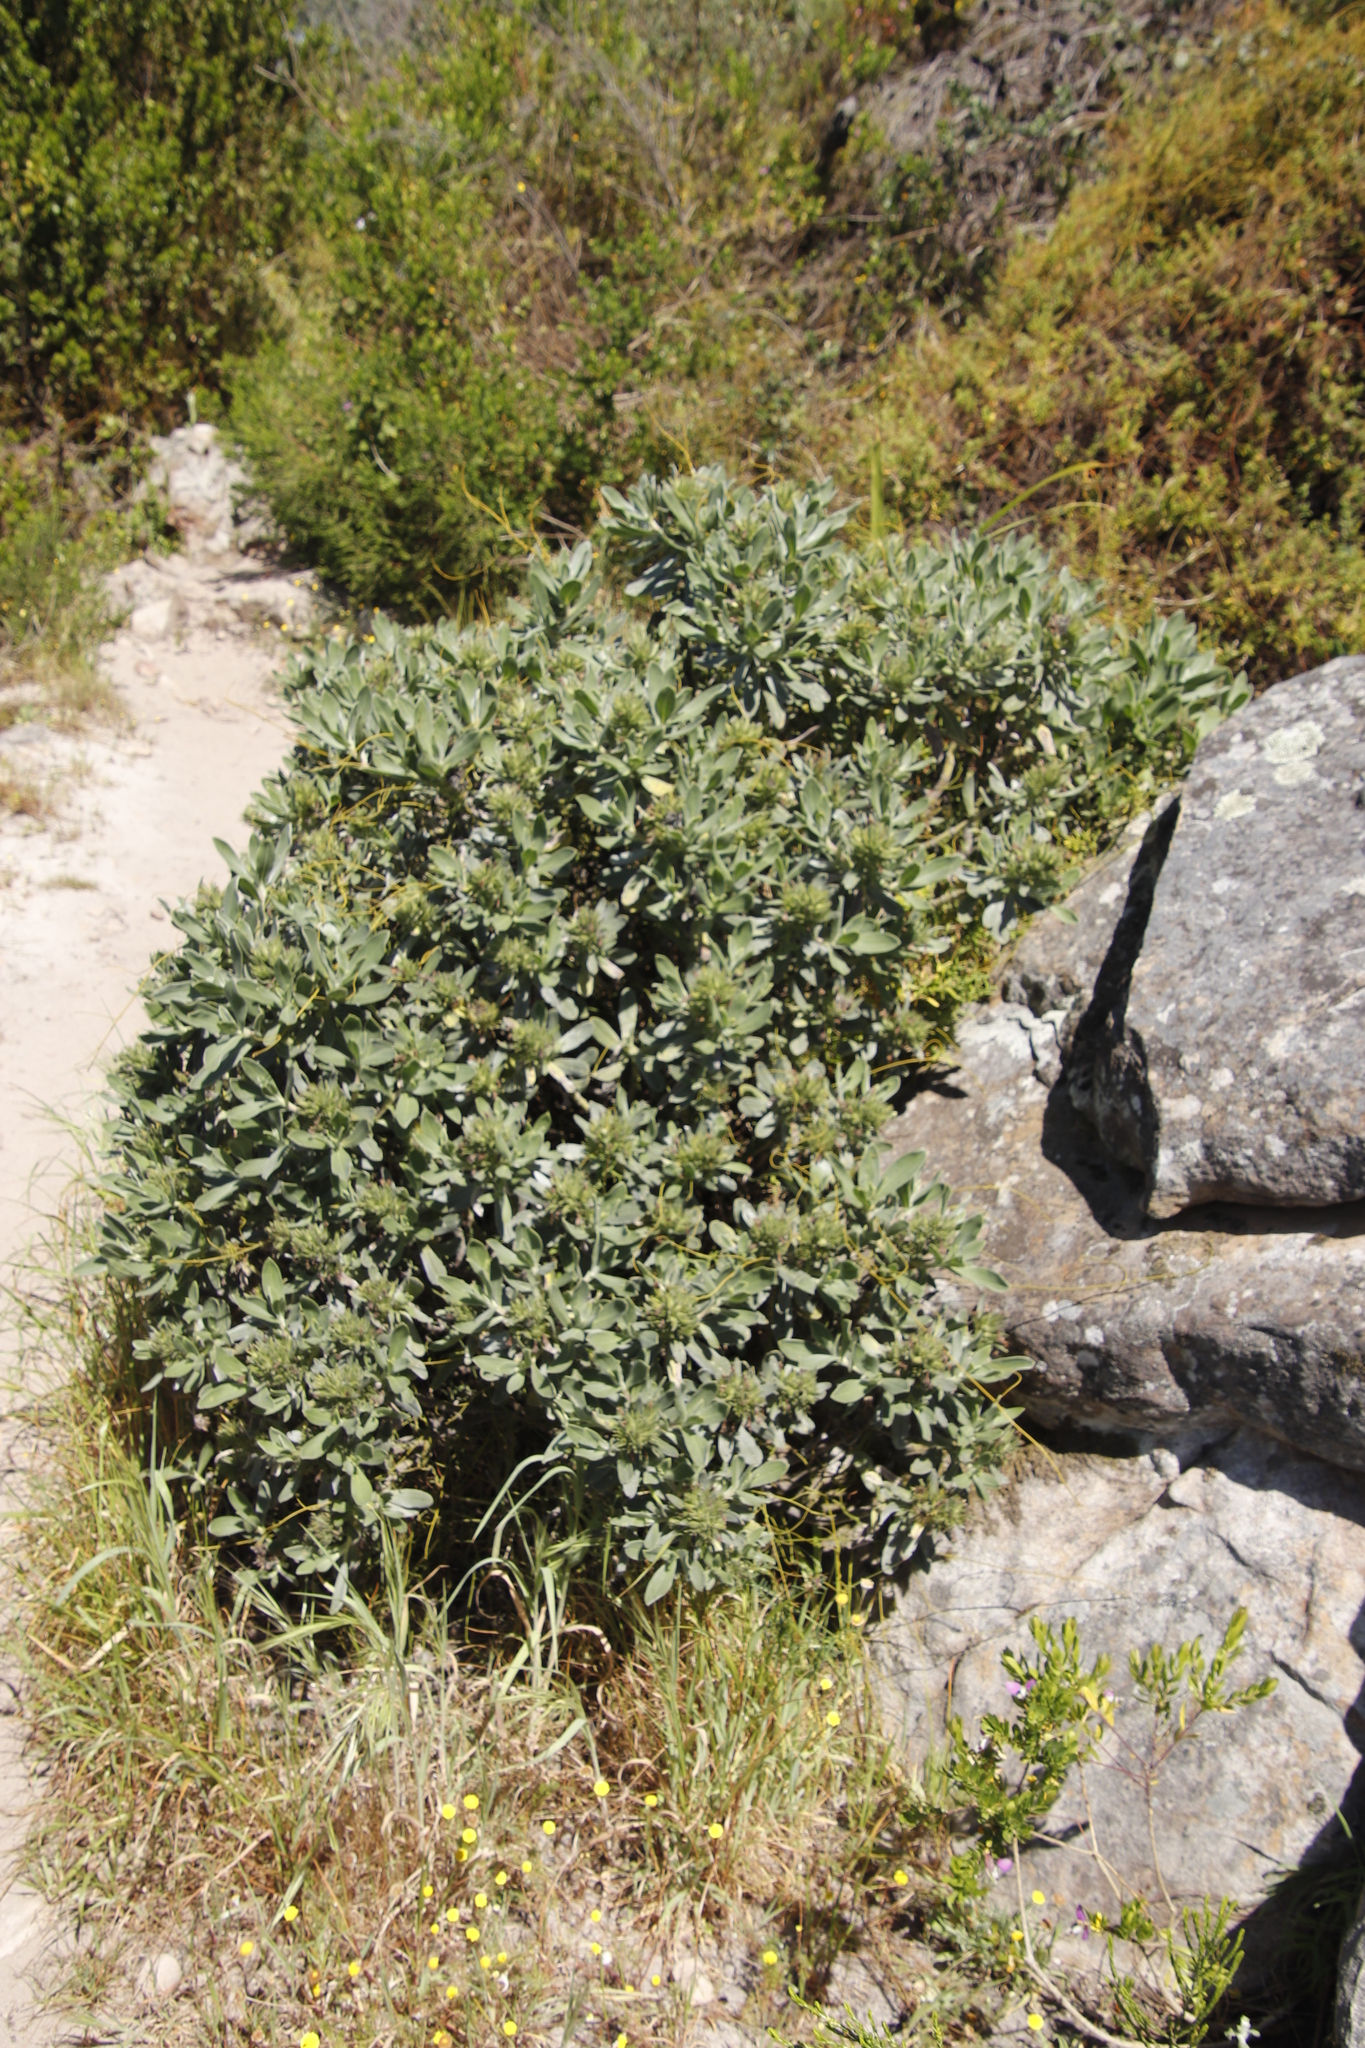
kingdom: Plantae
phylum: Tracheophyta
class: Magnoliopsida
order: Boraginales
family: Boraginaceae
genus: Lobostemon
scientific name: Lobostemon montanus
